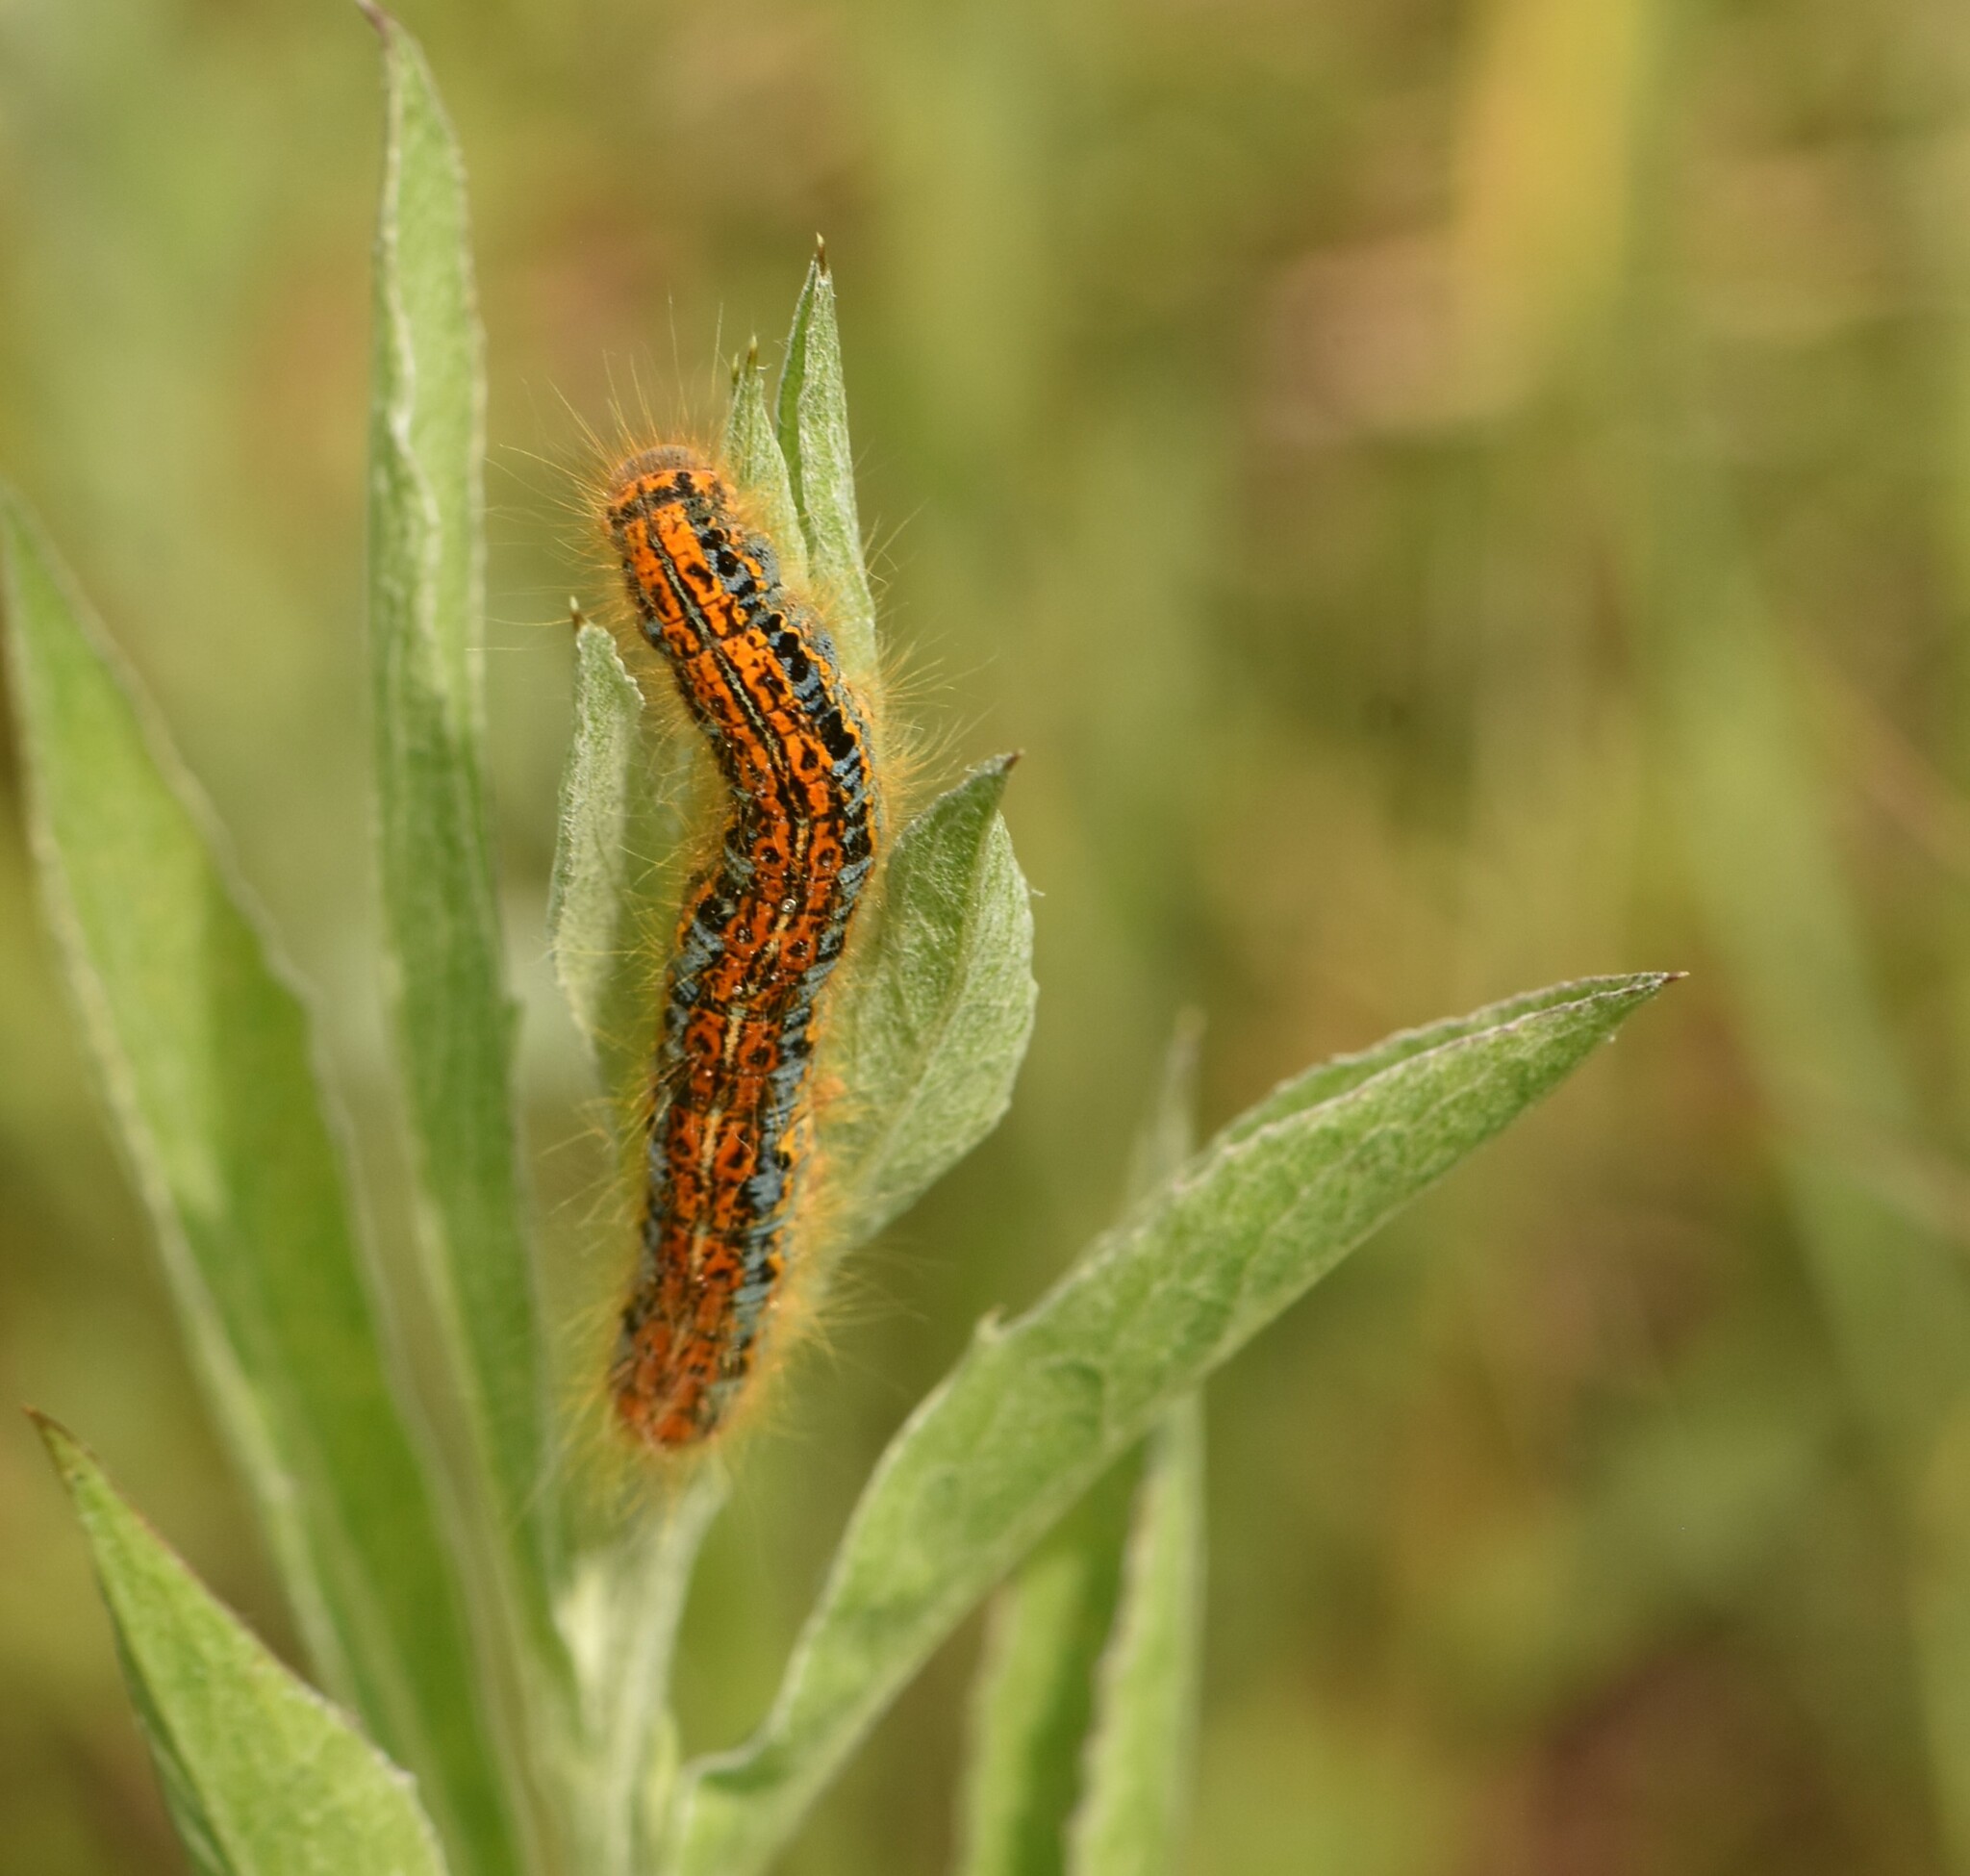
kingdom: Animalia
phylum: Arthropoda
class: Insecta
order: Lepidoptera
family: Lasiocampidae
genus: Malacosoma
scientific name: Malacosoma castrense
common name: Ground lackey
